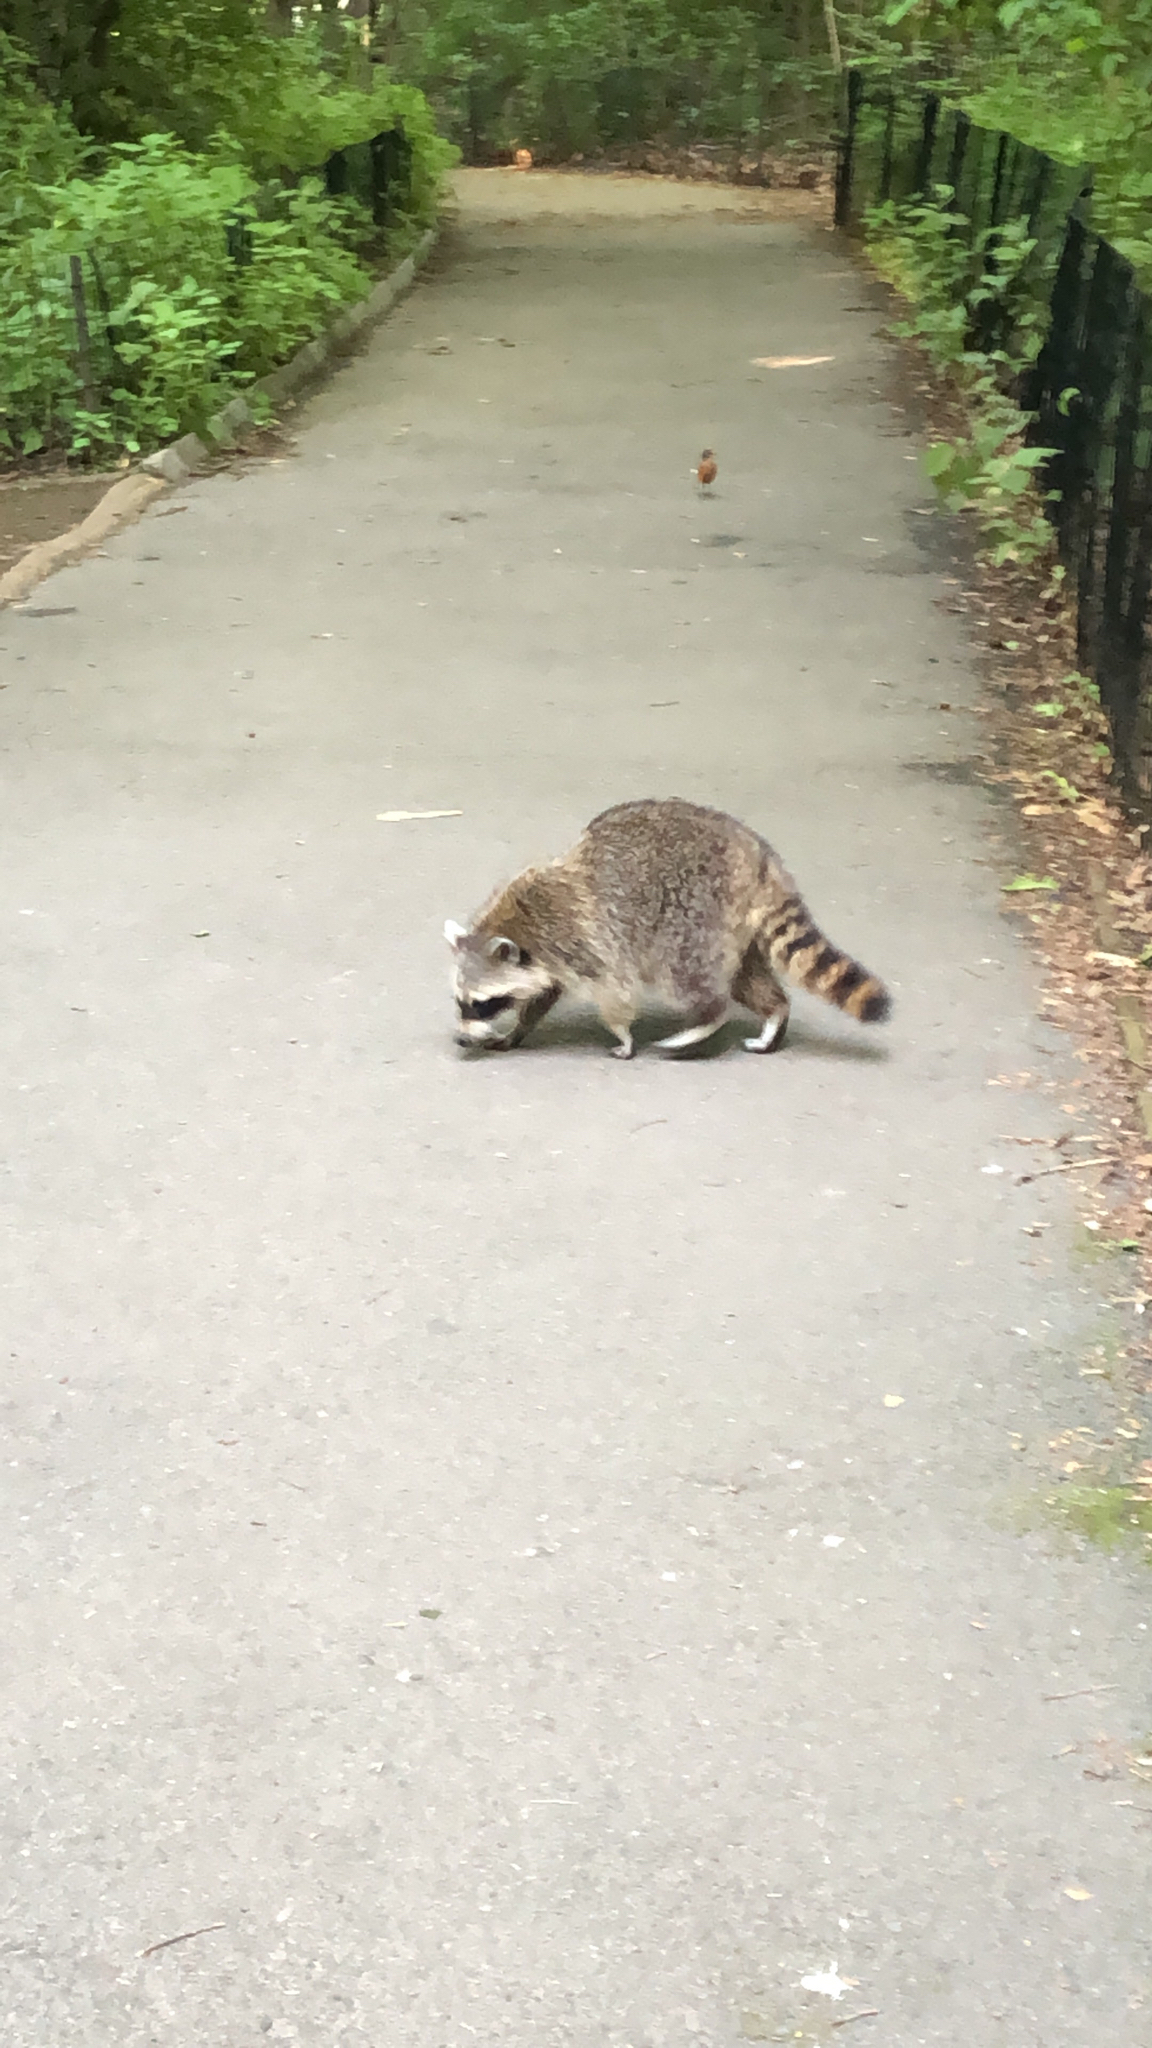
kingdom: Animalia
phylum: Chordata
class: Mammalia
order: Carnivora
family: Procyonidae
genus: Procyon
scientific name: Procyon lotor
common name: Raccoon
